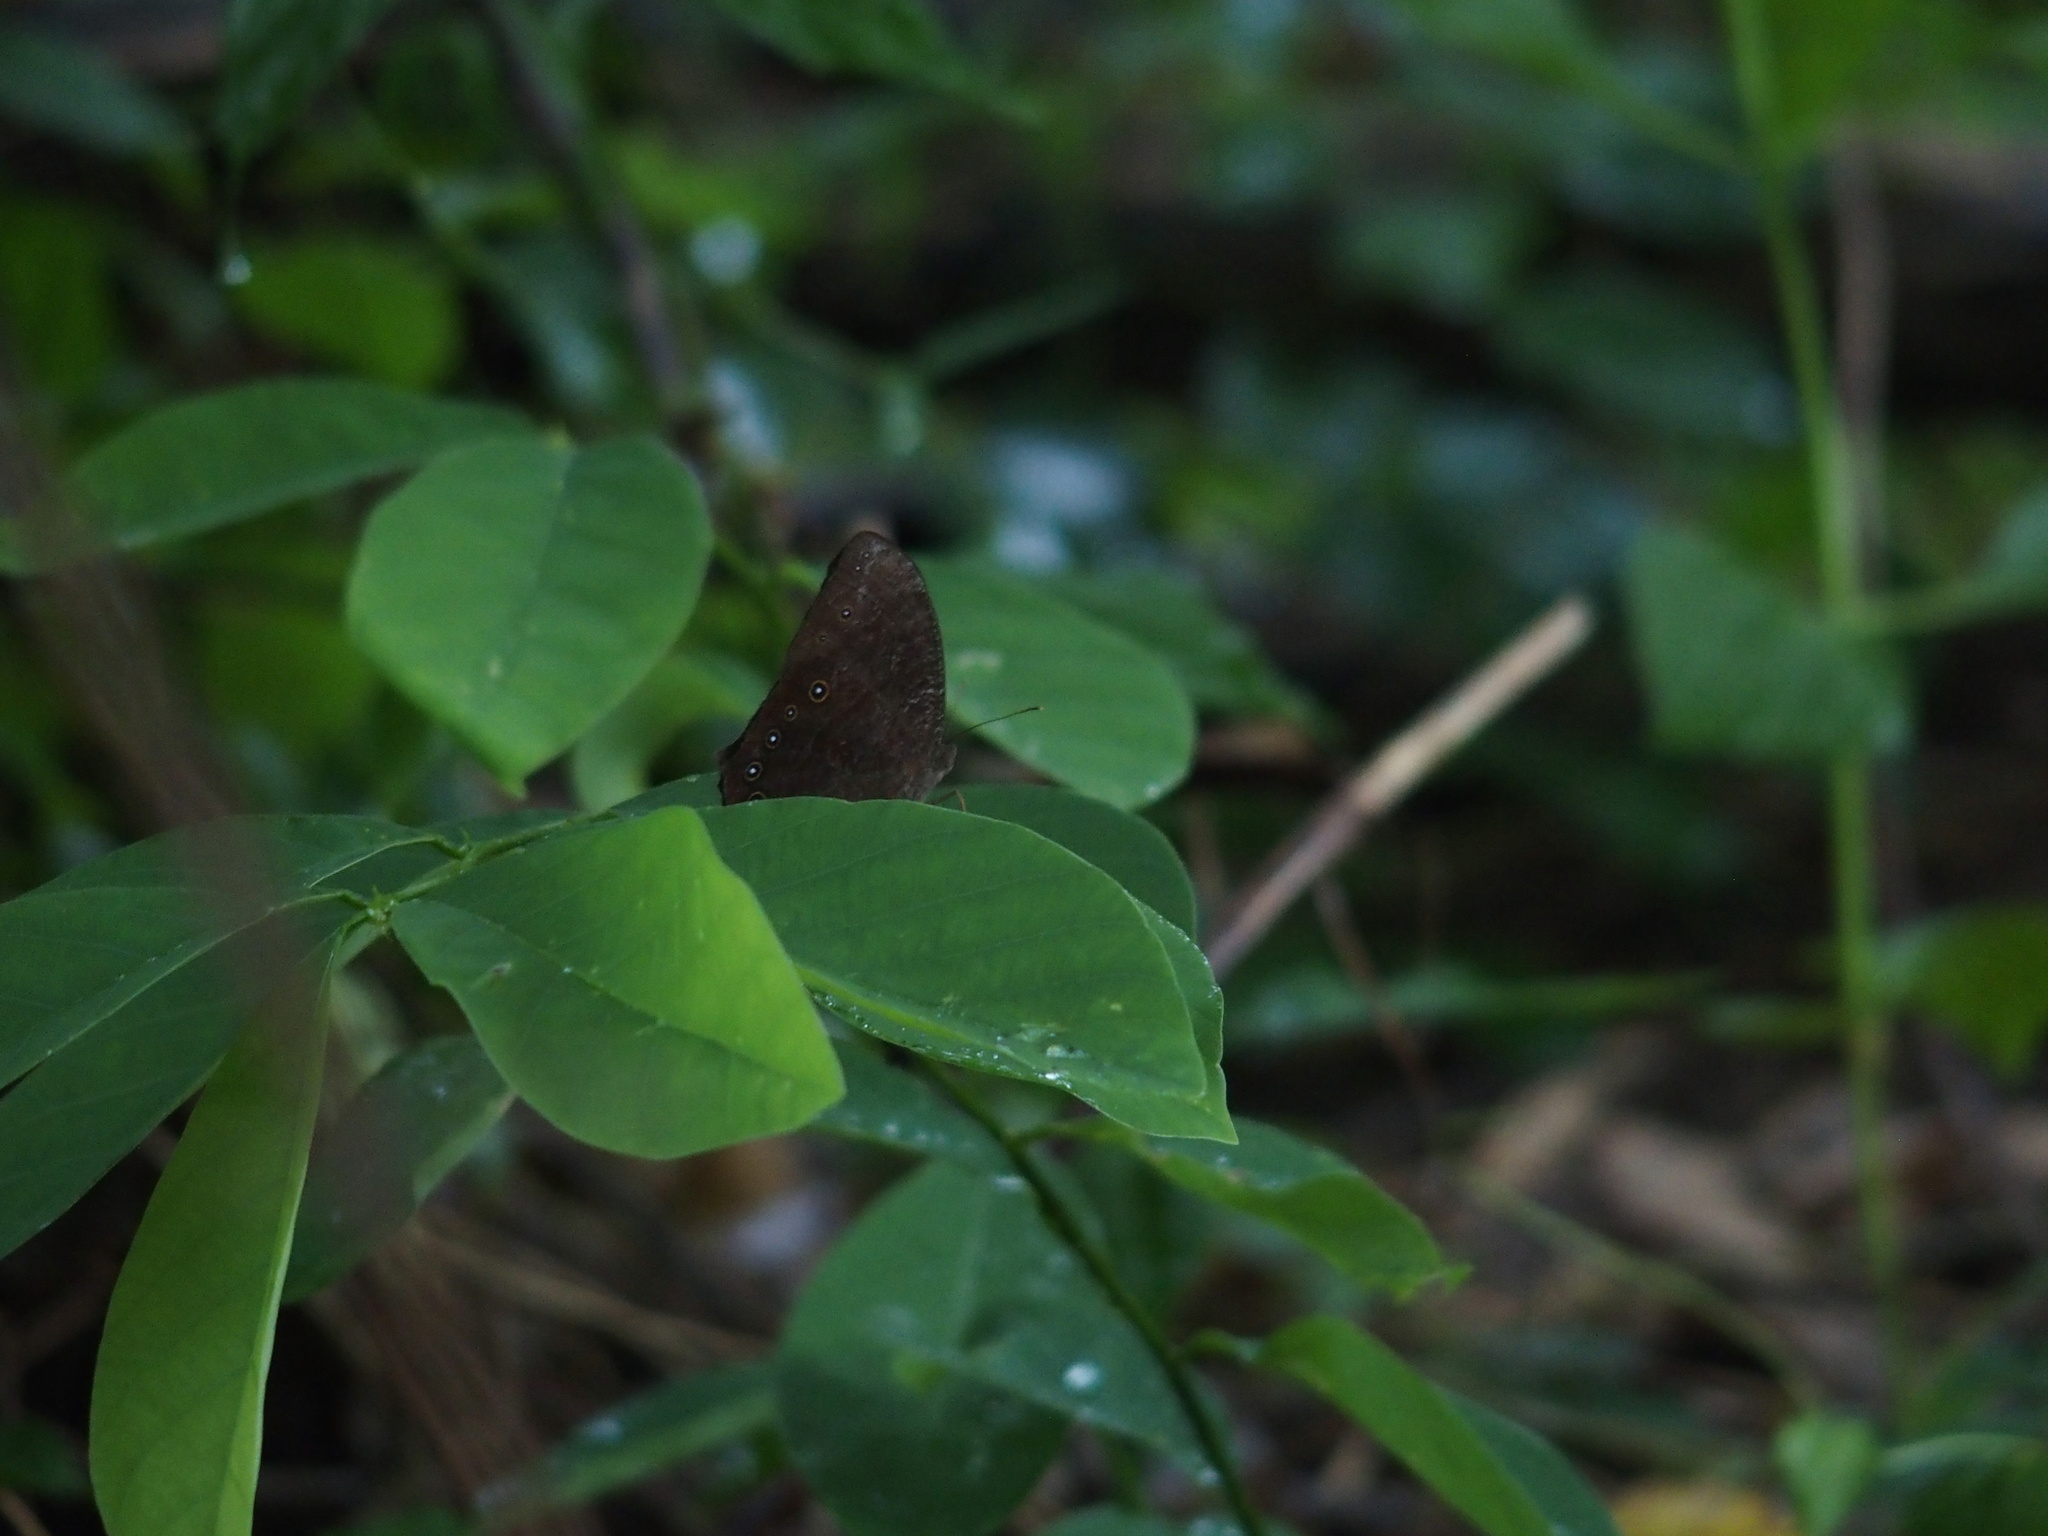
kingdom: Animalia
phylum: Arthropoda
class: Insecta
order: Lepidoptera
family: Nymphalidae
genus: Melanitis
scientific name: Melanitis phedima
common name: Dark evening brown
